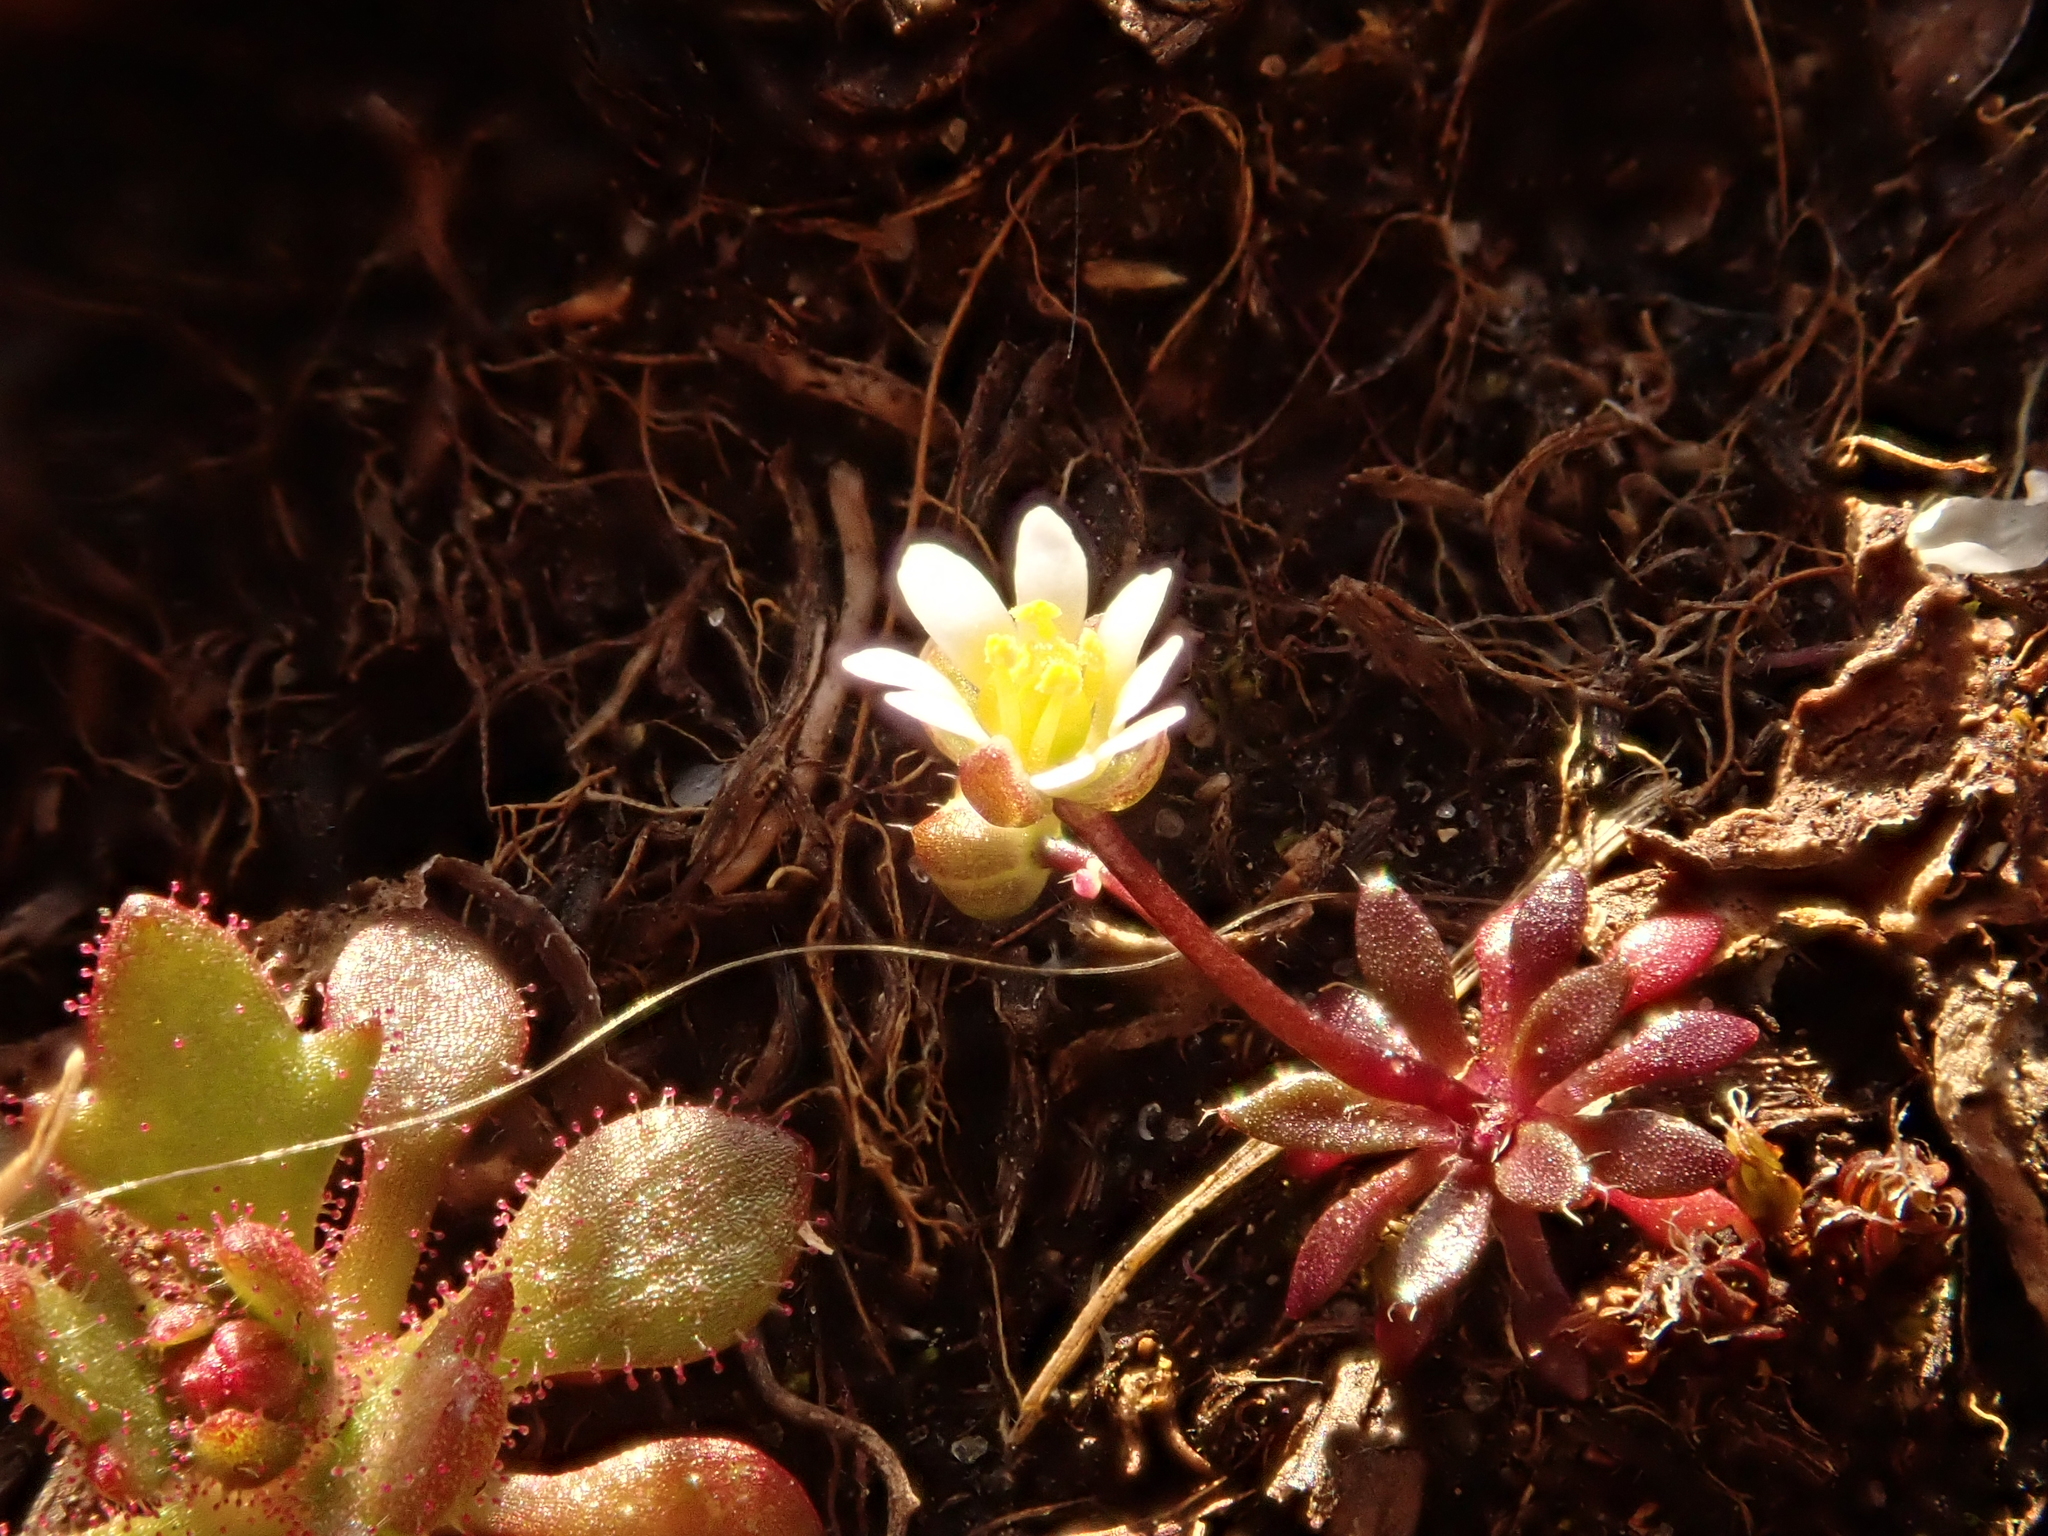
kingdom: Plantae
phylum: Tracheophyta
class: Magnoliopsida
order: Brassicales
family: Brassicaceae
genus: Draba
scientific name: Draba verna
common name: Spring draba
